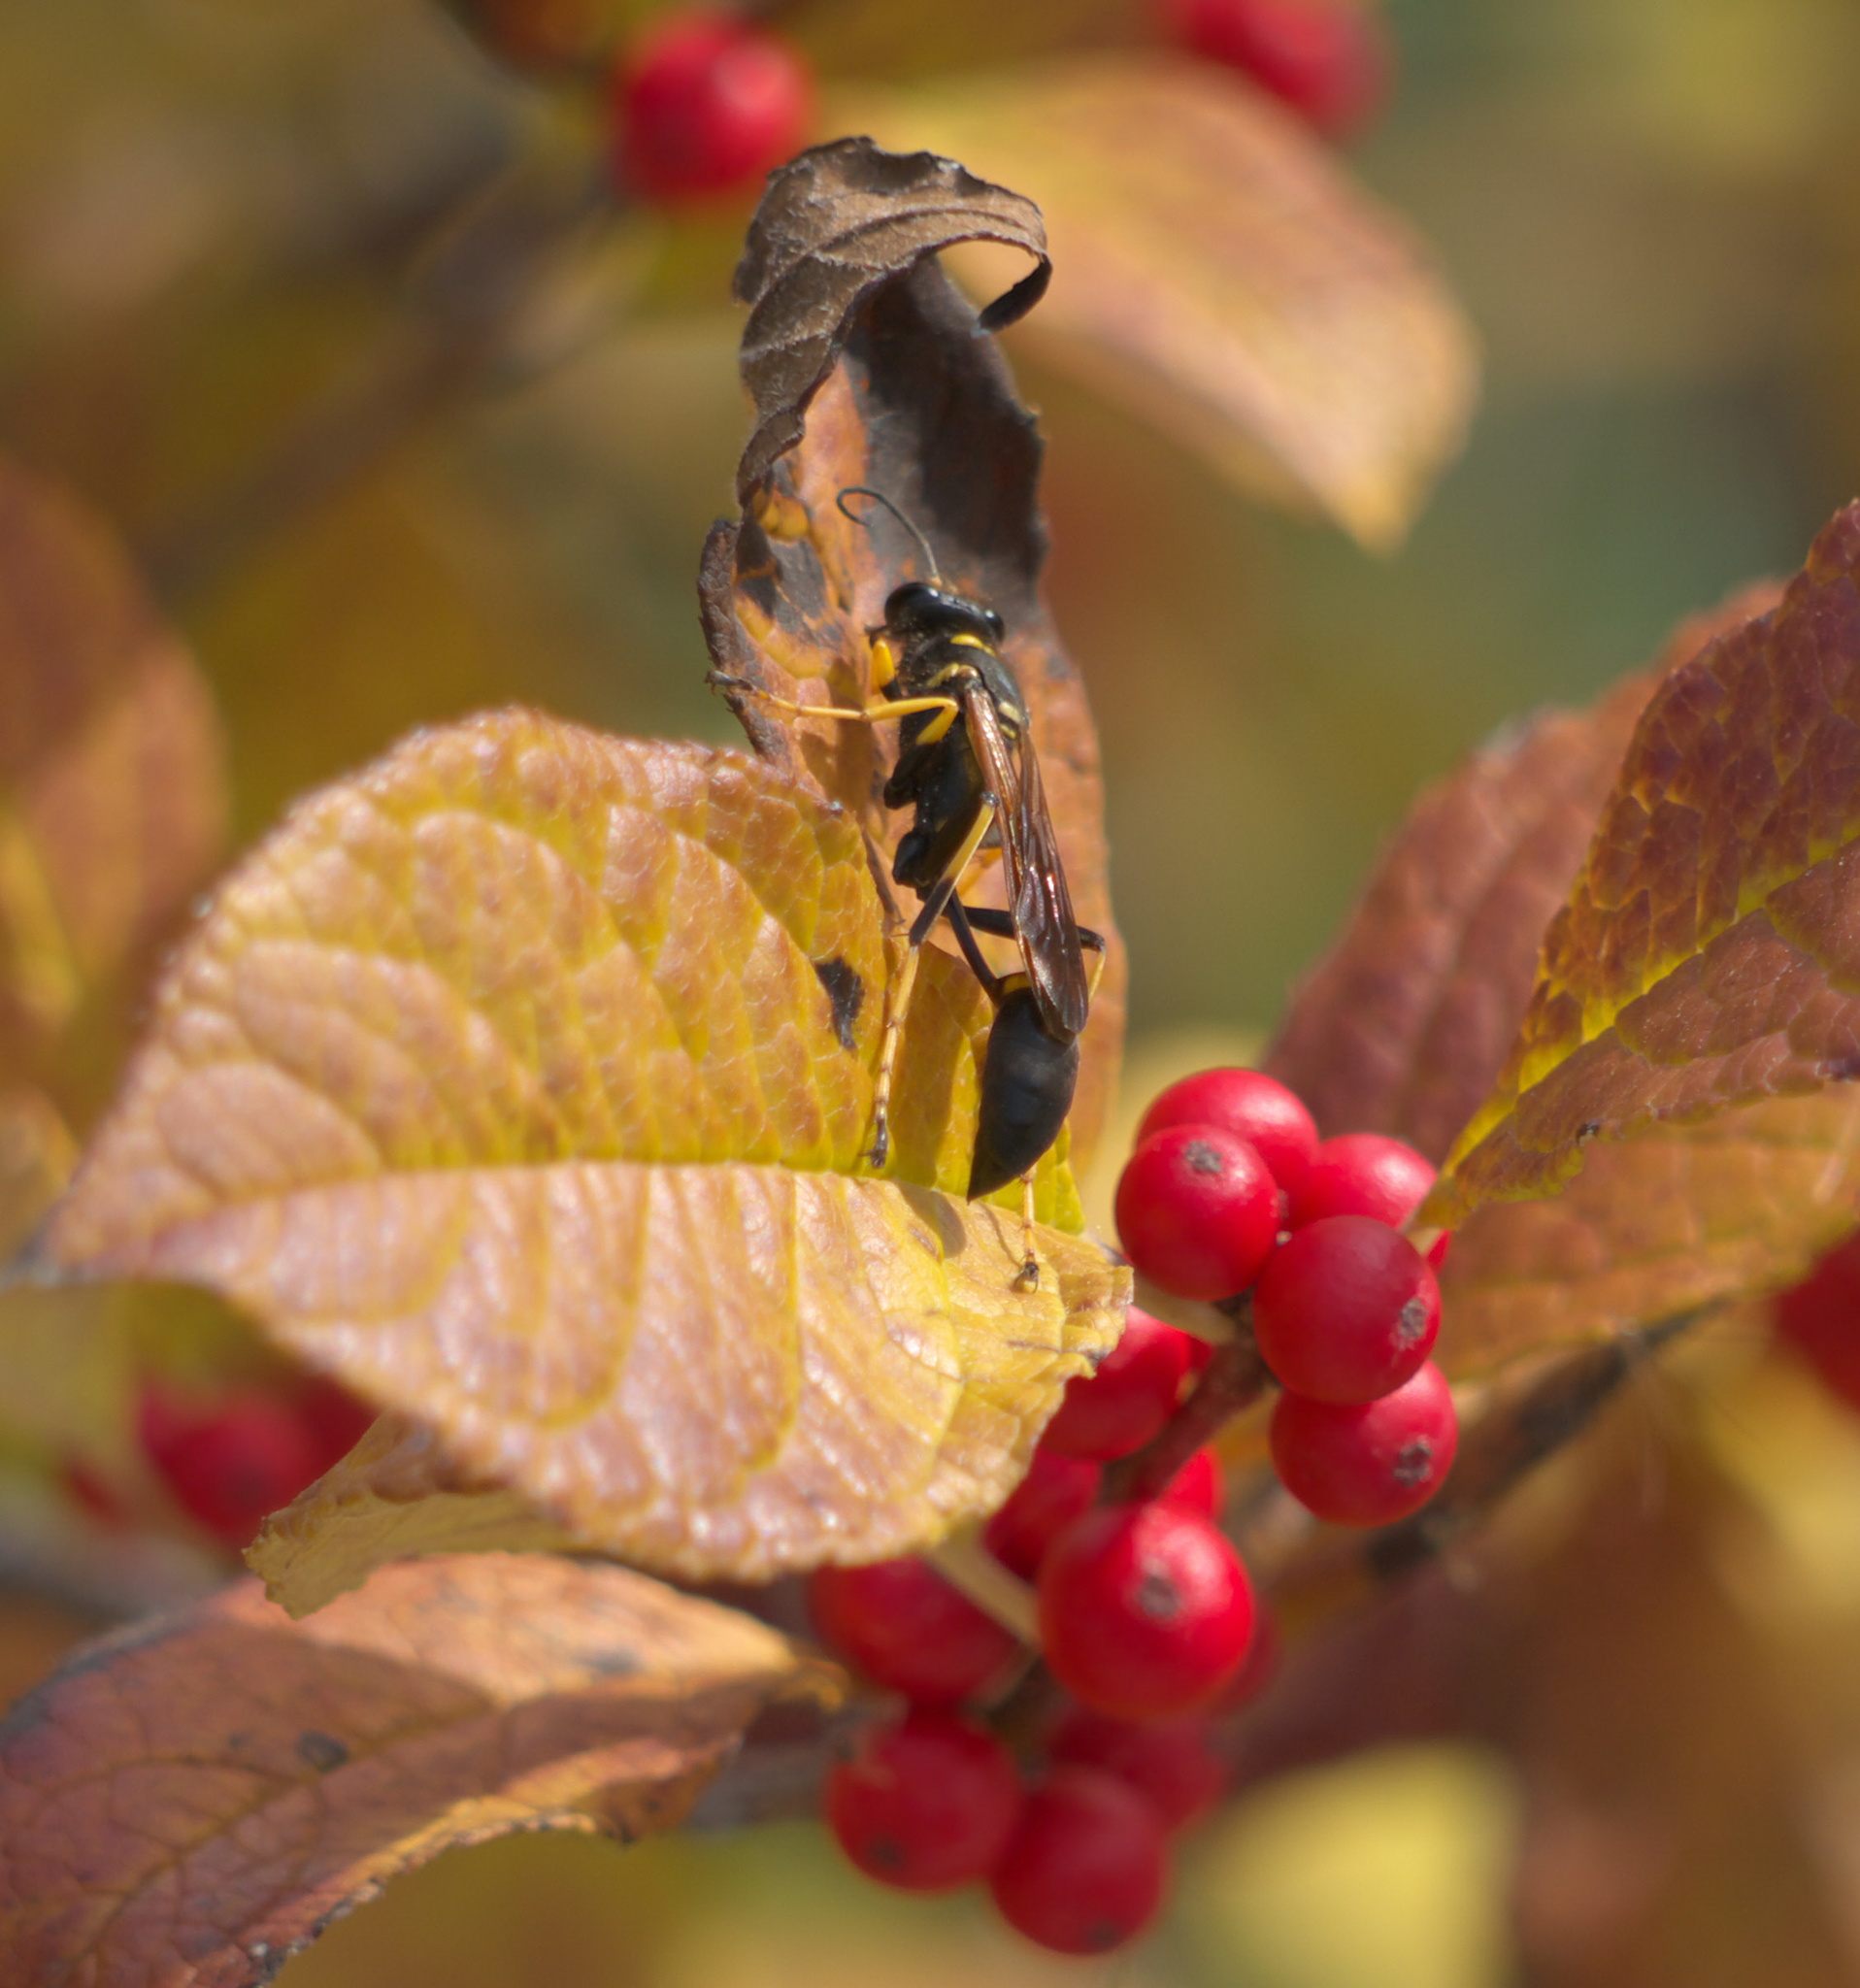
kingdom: Animalia
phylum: Arthropoda
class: Insecta
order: Hymenoptera
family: Sphecidae
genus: Sceliphron
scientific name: Sceliphron caementarium
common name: Mud dauber
